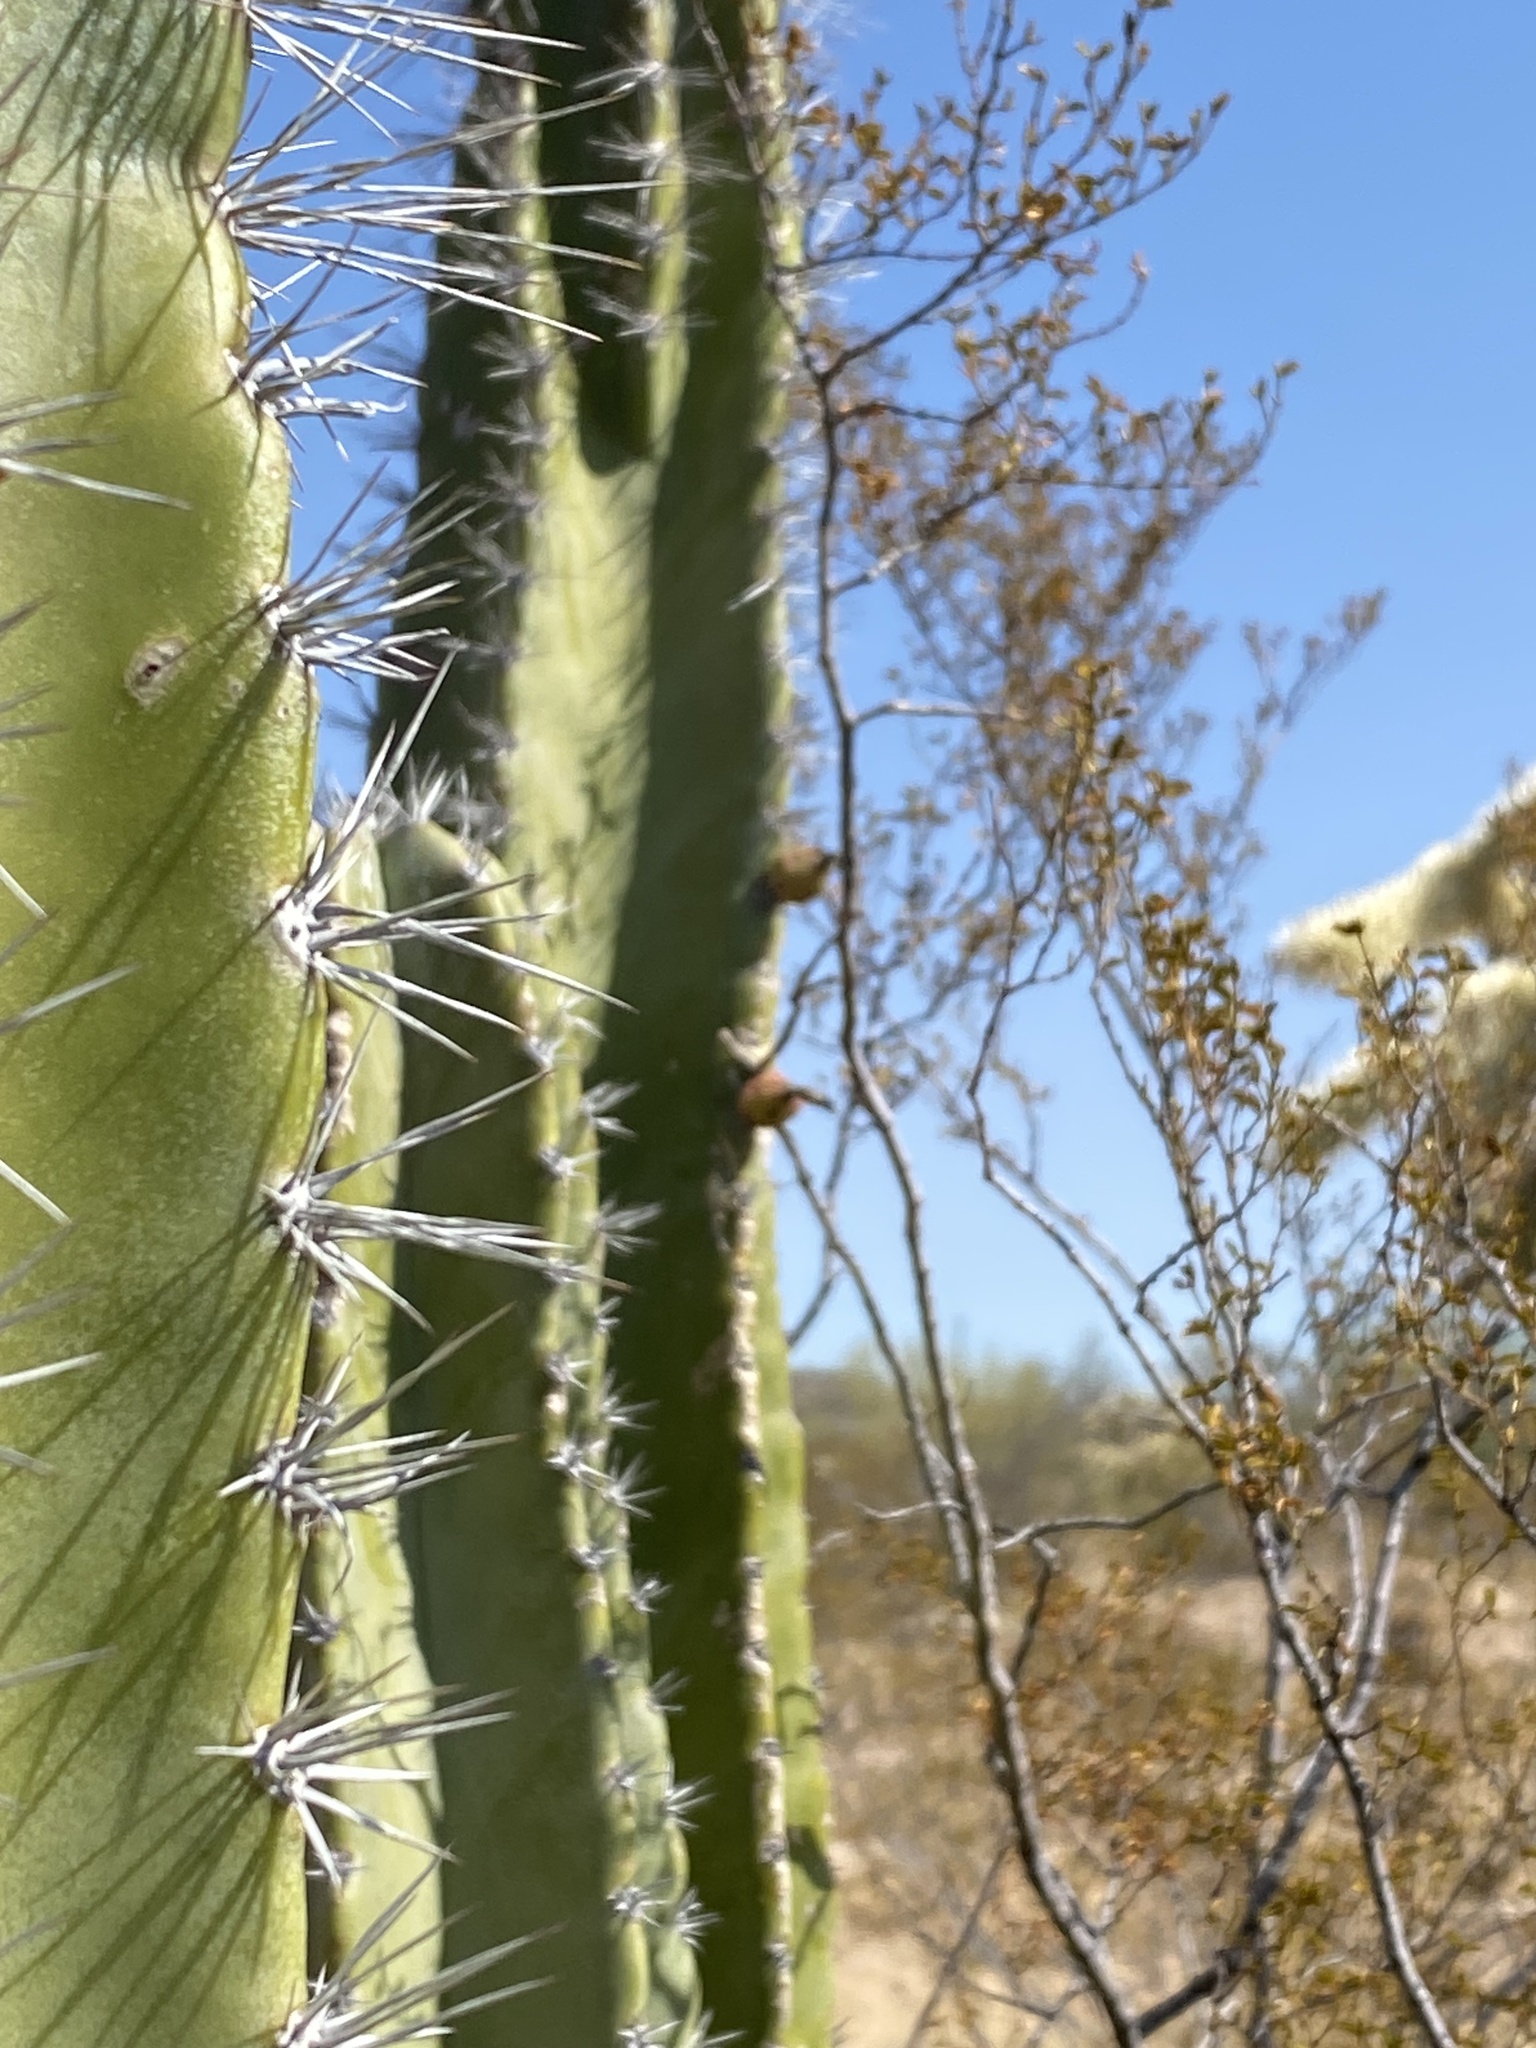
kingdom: Plantae
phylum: Tracheophyta
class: Magnoliopsida
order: Caryophyllales
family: Cactaceae
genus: Pachycereus
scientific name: Pachycereus schottii
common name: Senita cactus
